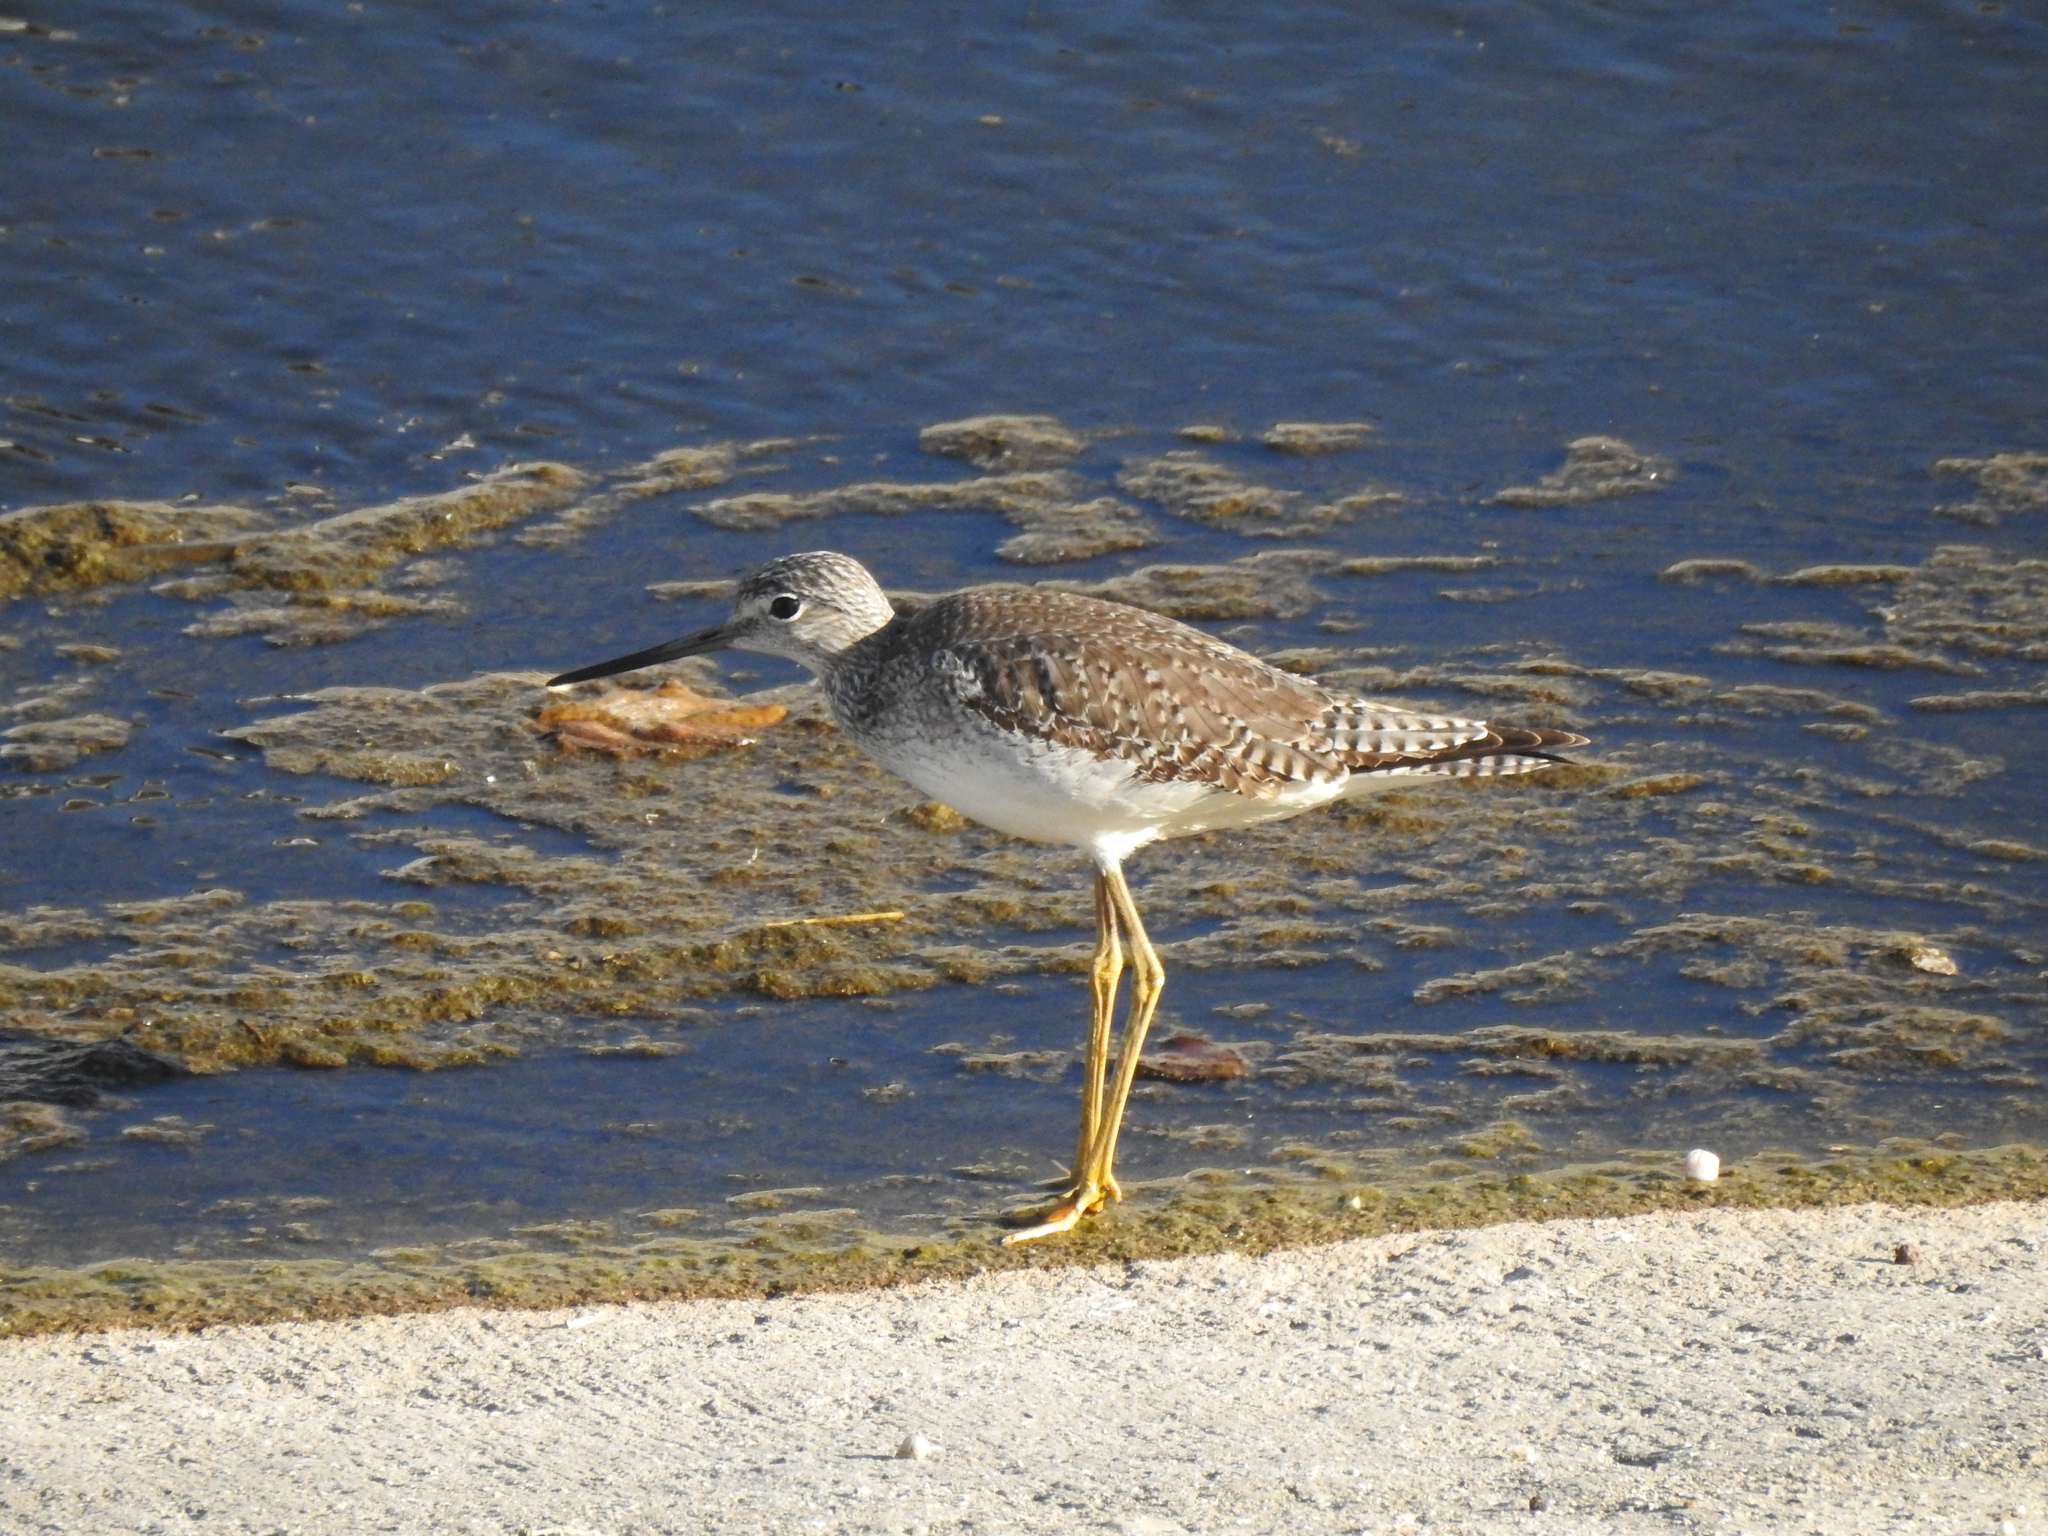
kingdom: Animalia
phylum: Chordata
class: Aves
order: Charadriiformes
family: Scolopacidae
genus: Tringa
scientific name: Tringa melanoleuca
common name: Greater yellowlegs
